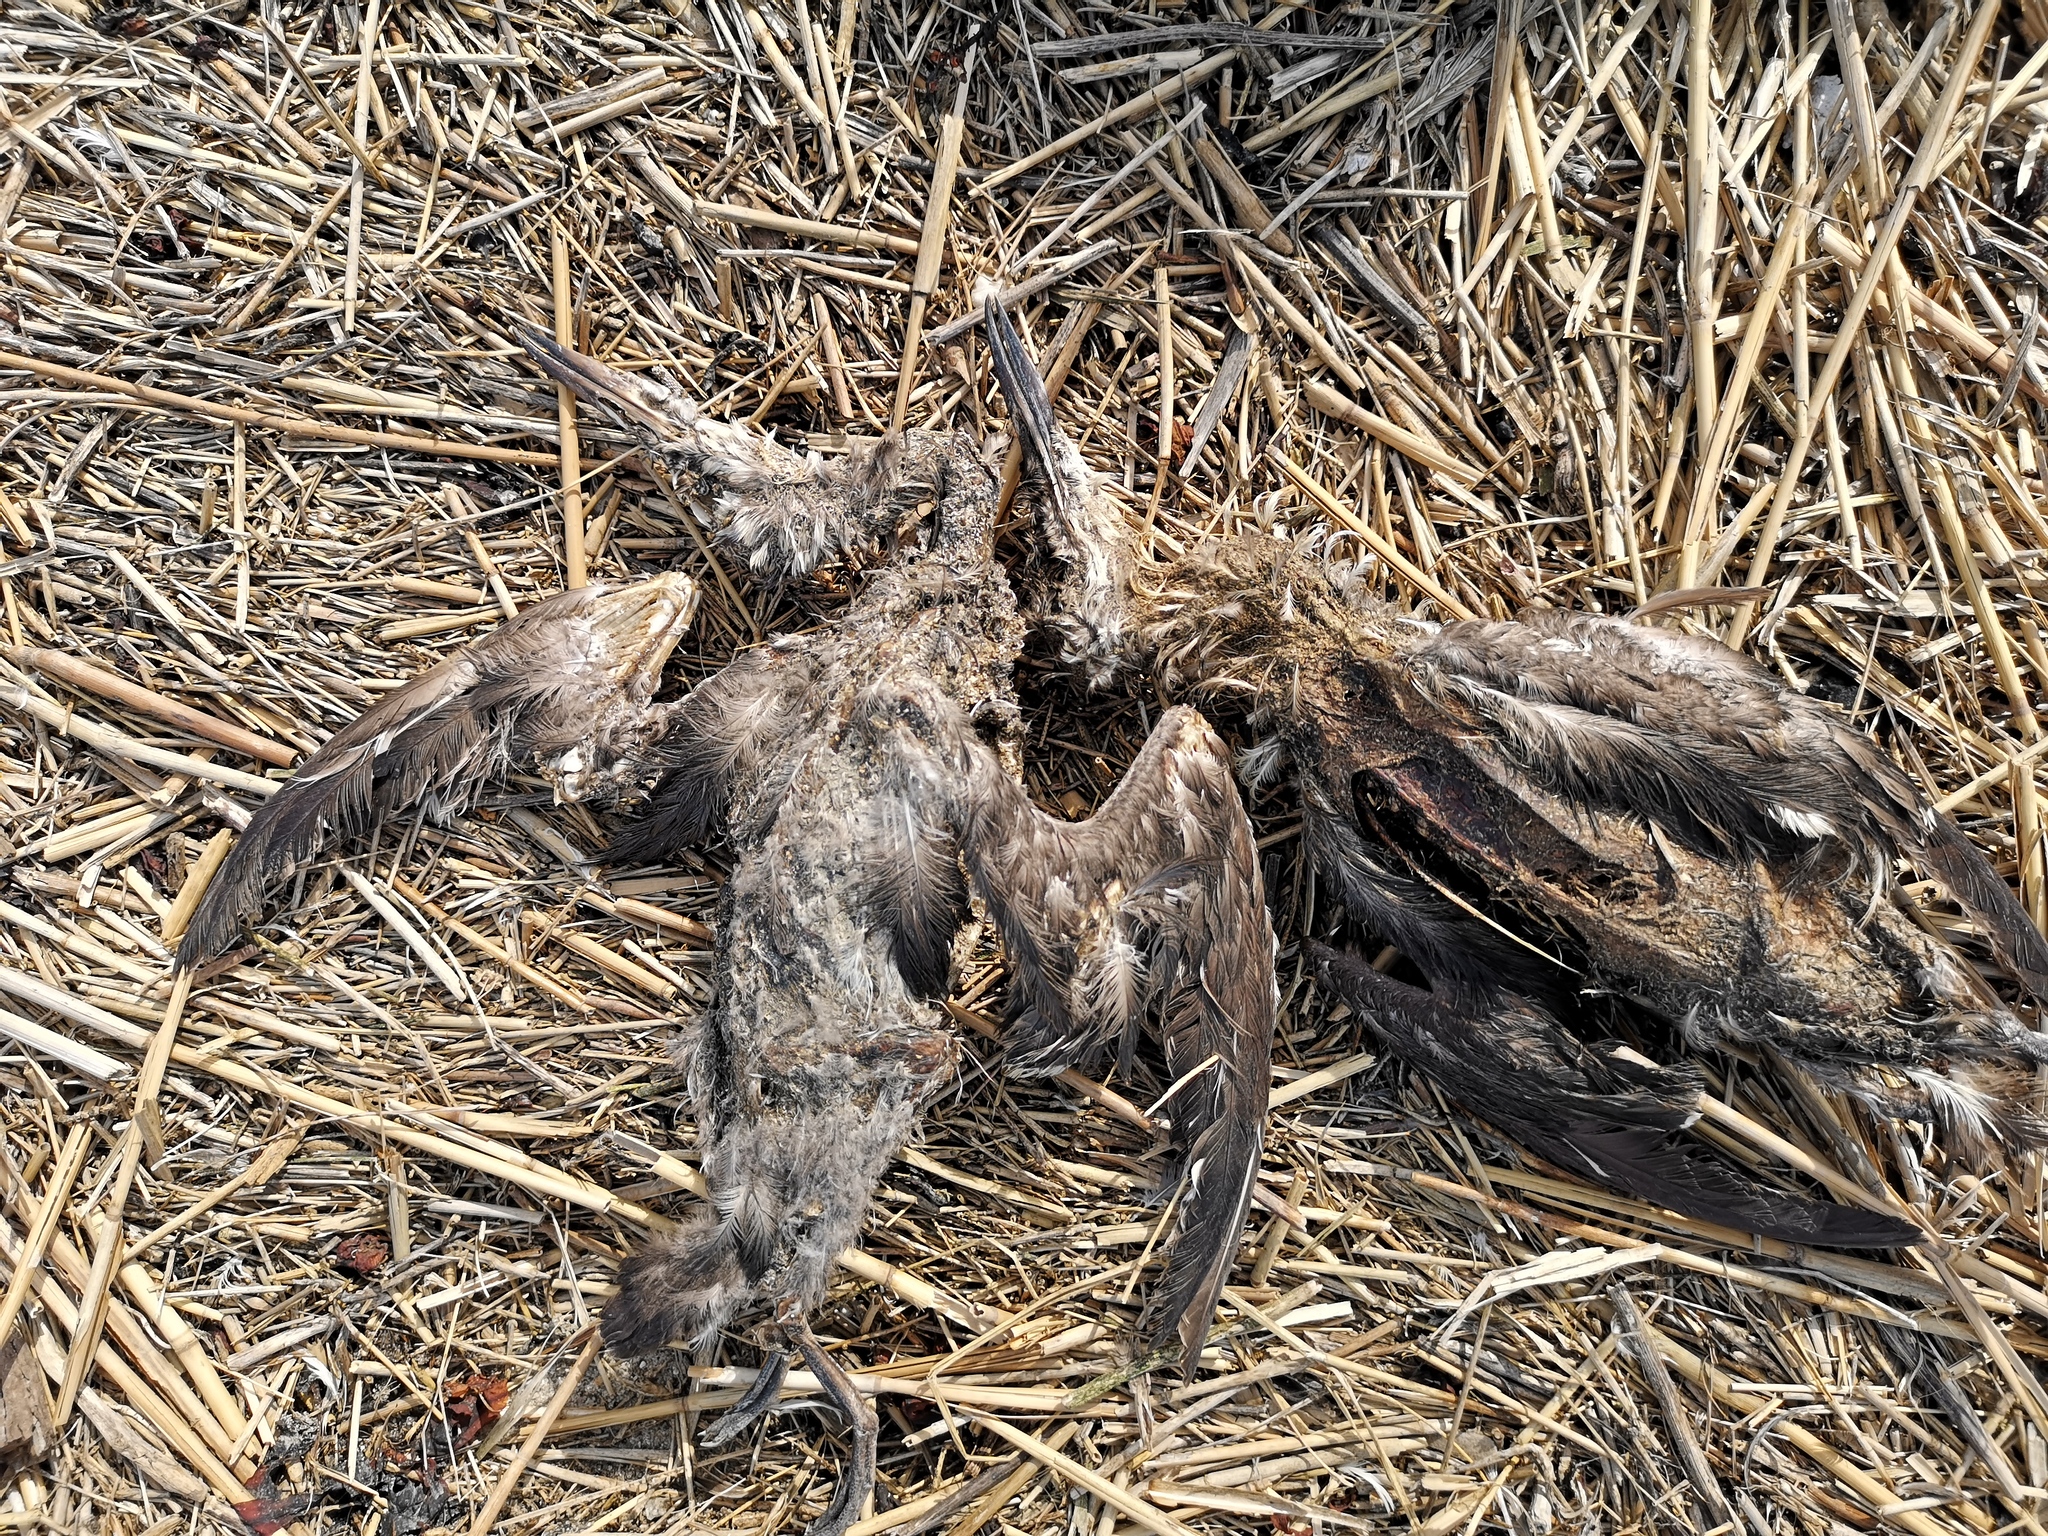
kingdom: Animalia
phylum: Chordata
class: Aves
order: Charadriiformes
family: Alcidae
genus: Uria
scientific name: Uria aalge
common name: Common murre
